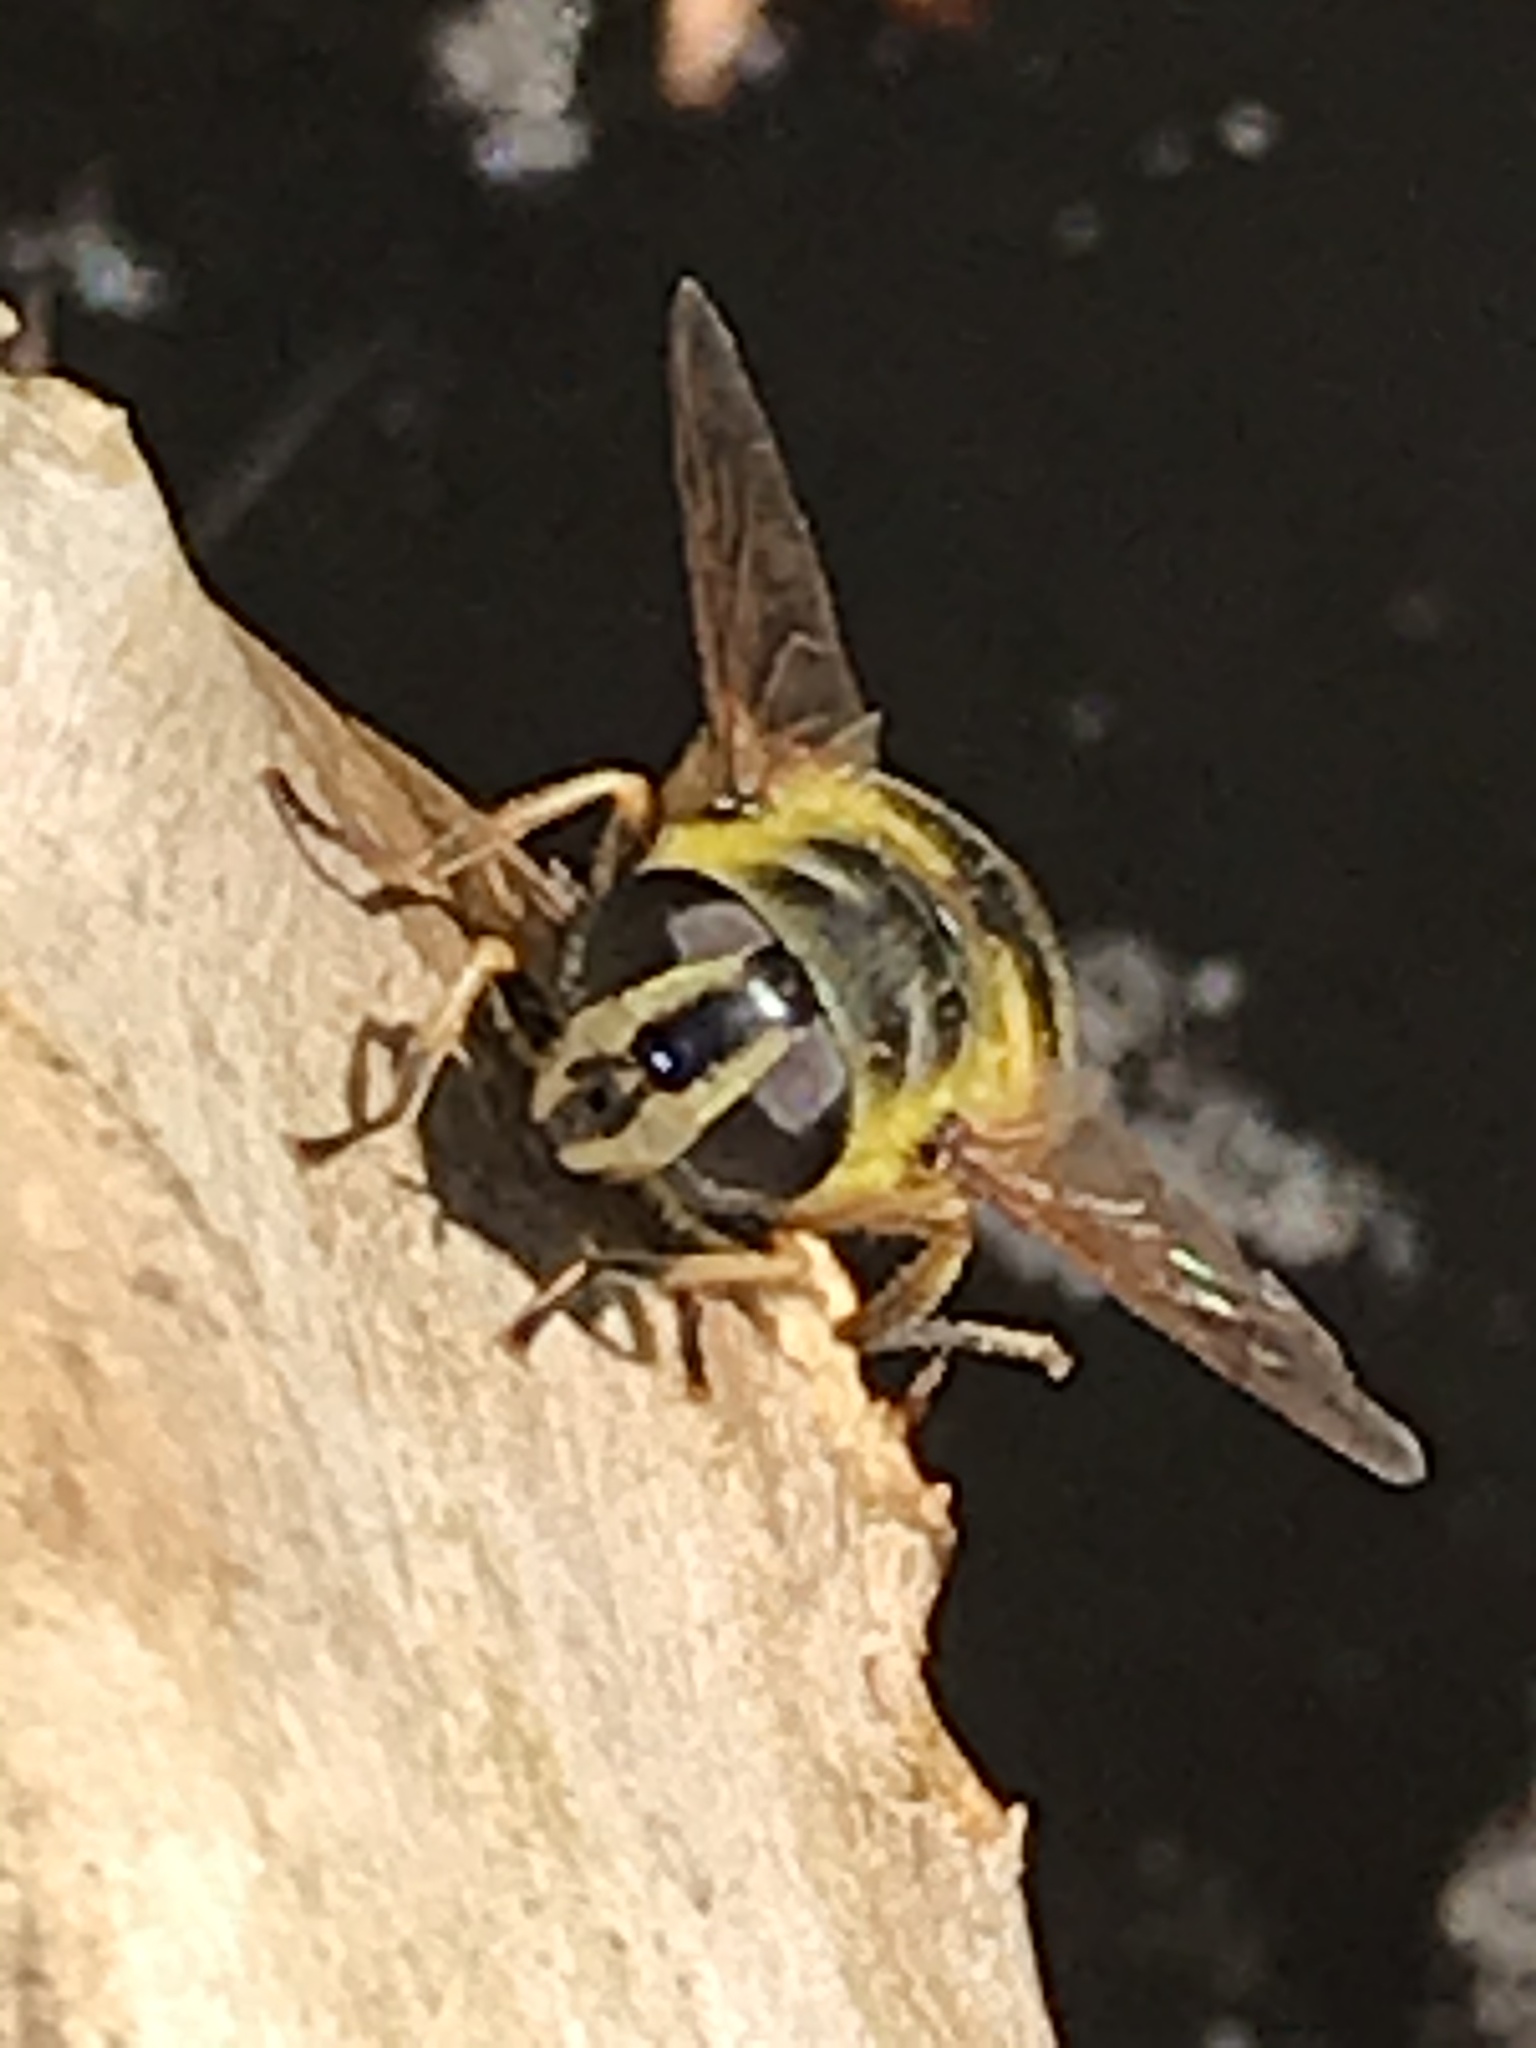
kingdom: Animalia
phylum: Arthropoda
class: Insecta
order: Diptera
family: Syrphidae
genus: Myathropa
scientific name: Myathropa florea
